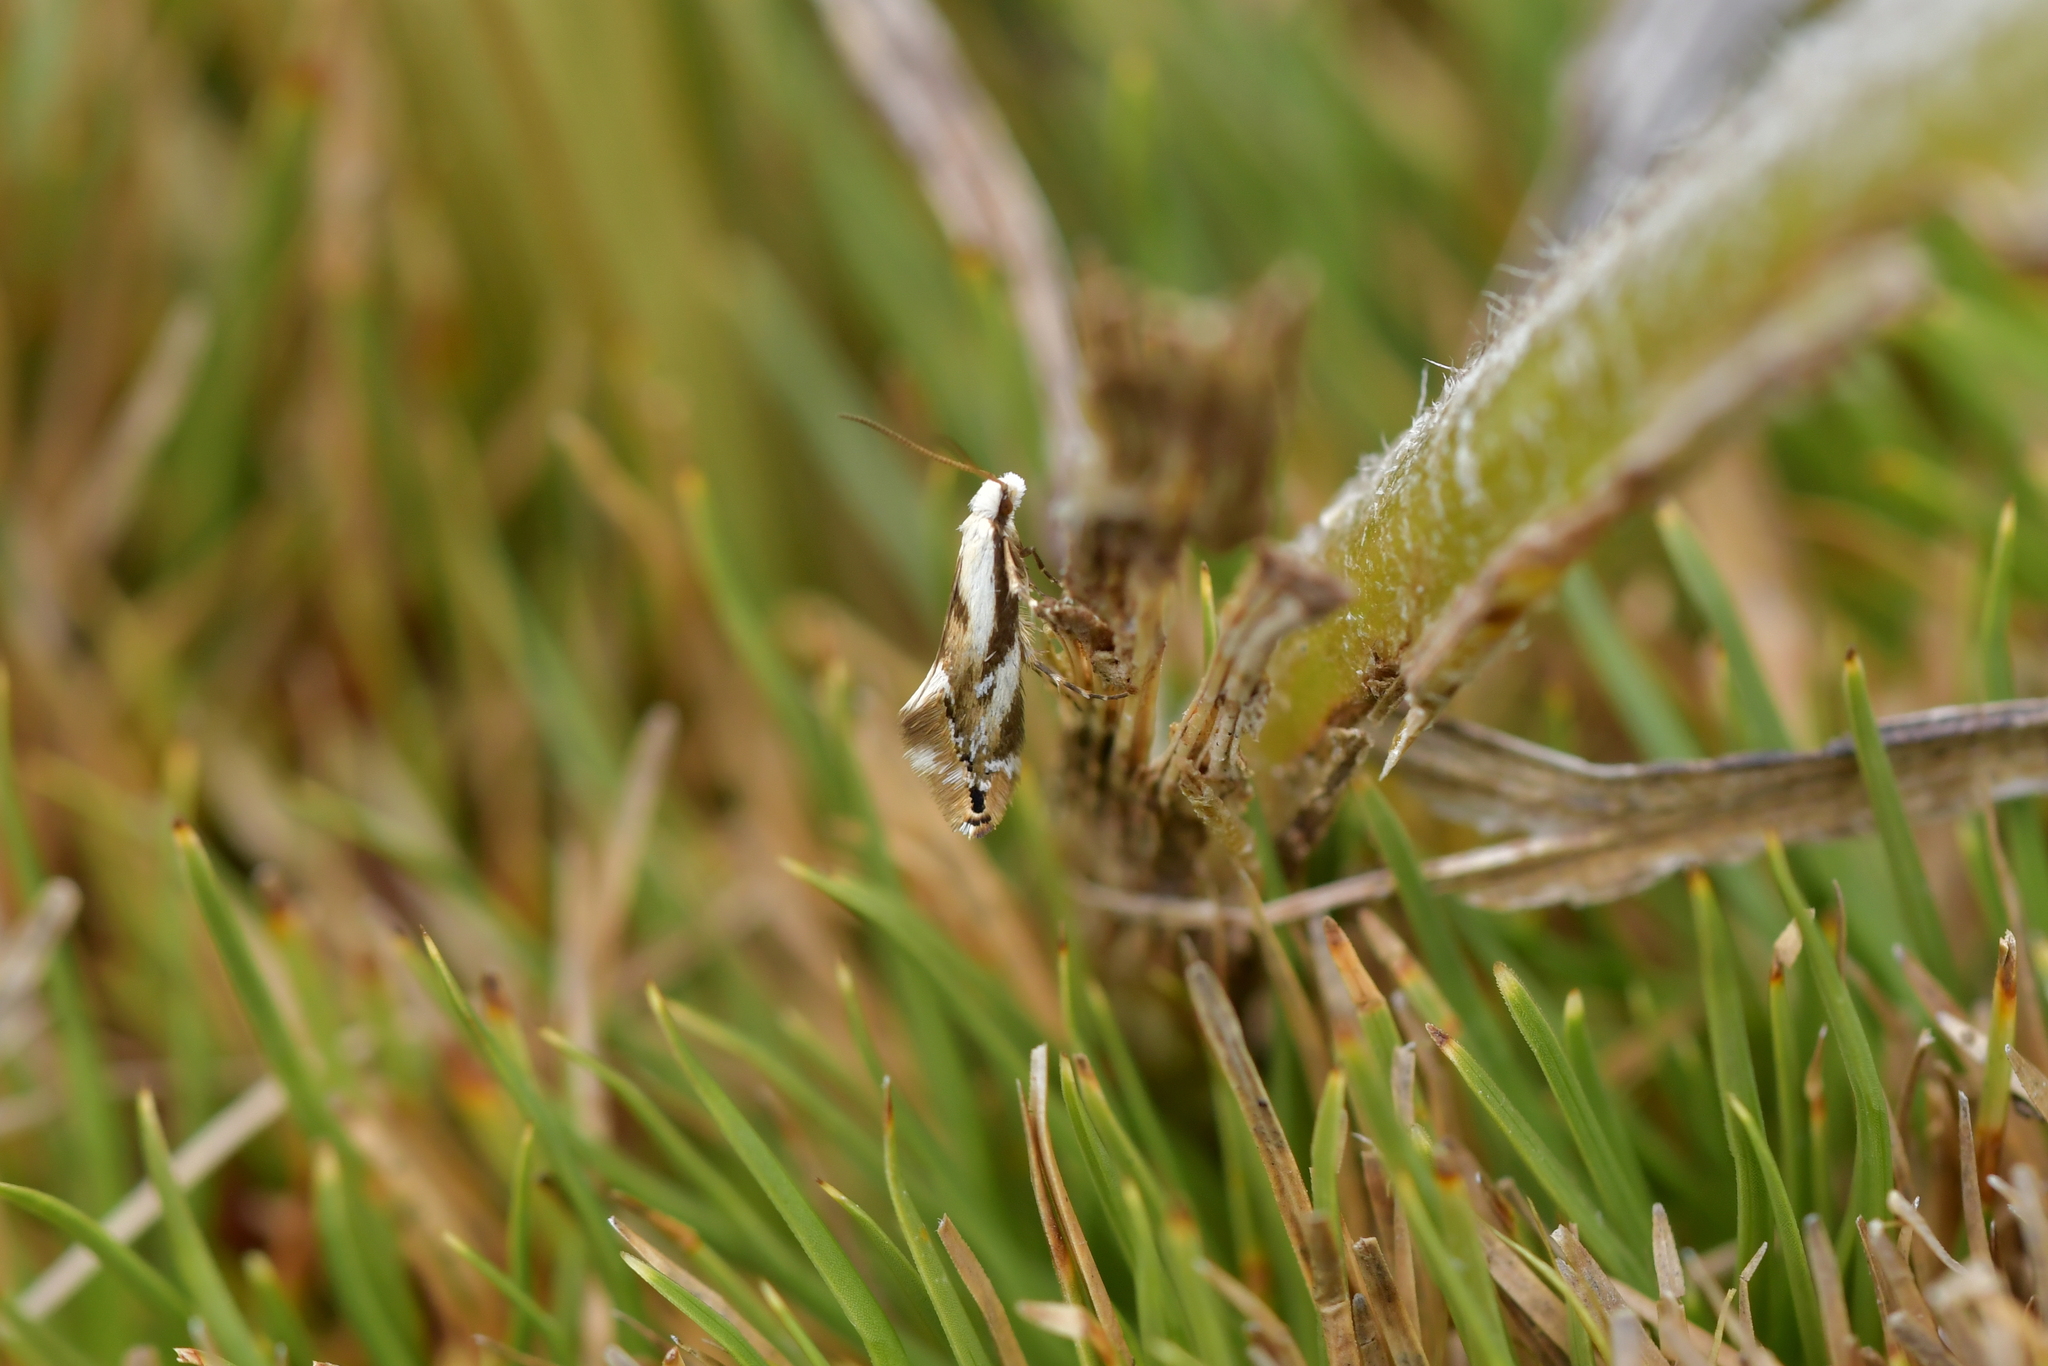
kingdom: Animalia
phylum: Arthropoda
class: Insecta
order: Lepidoptera
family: Mnesarchaeidae
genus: Mnesarchella
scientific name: Mnesarchella acuta
